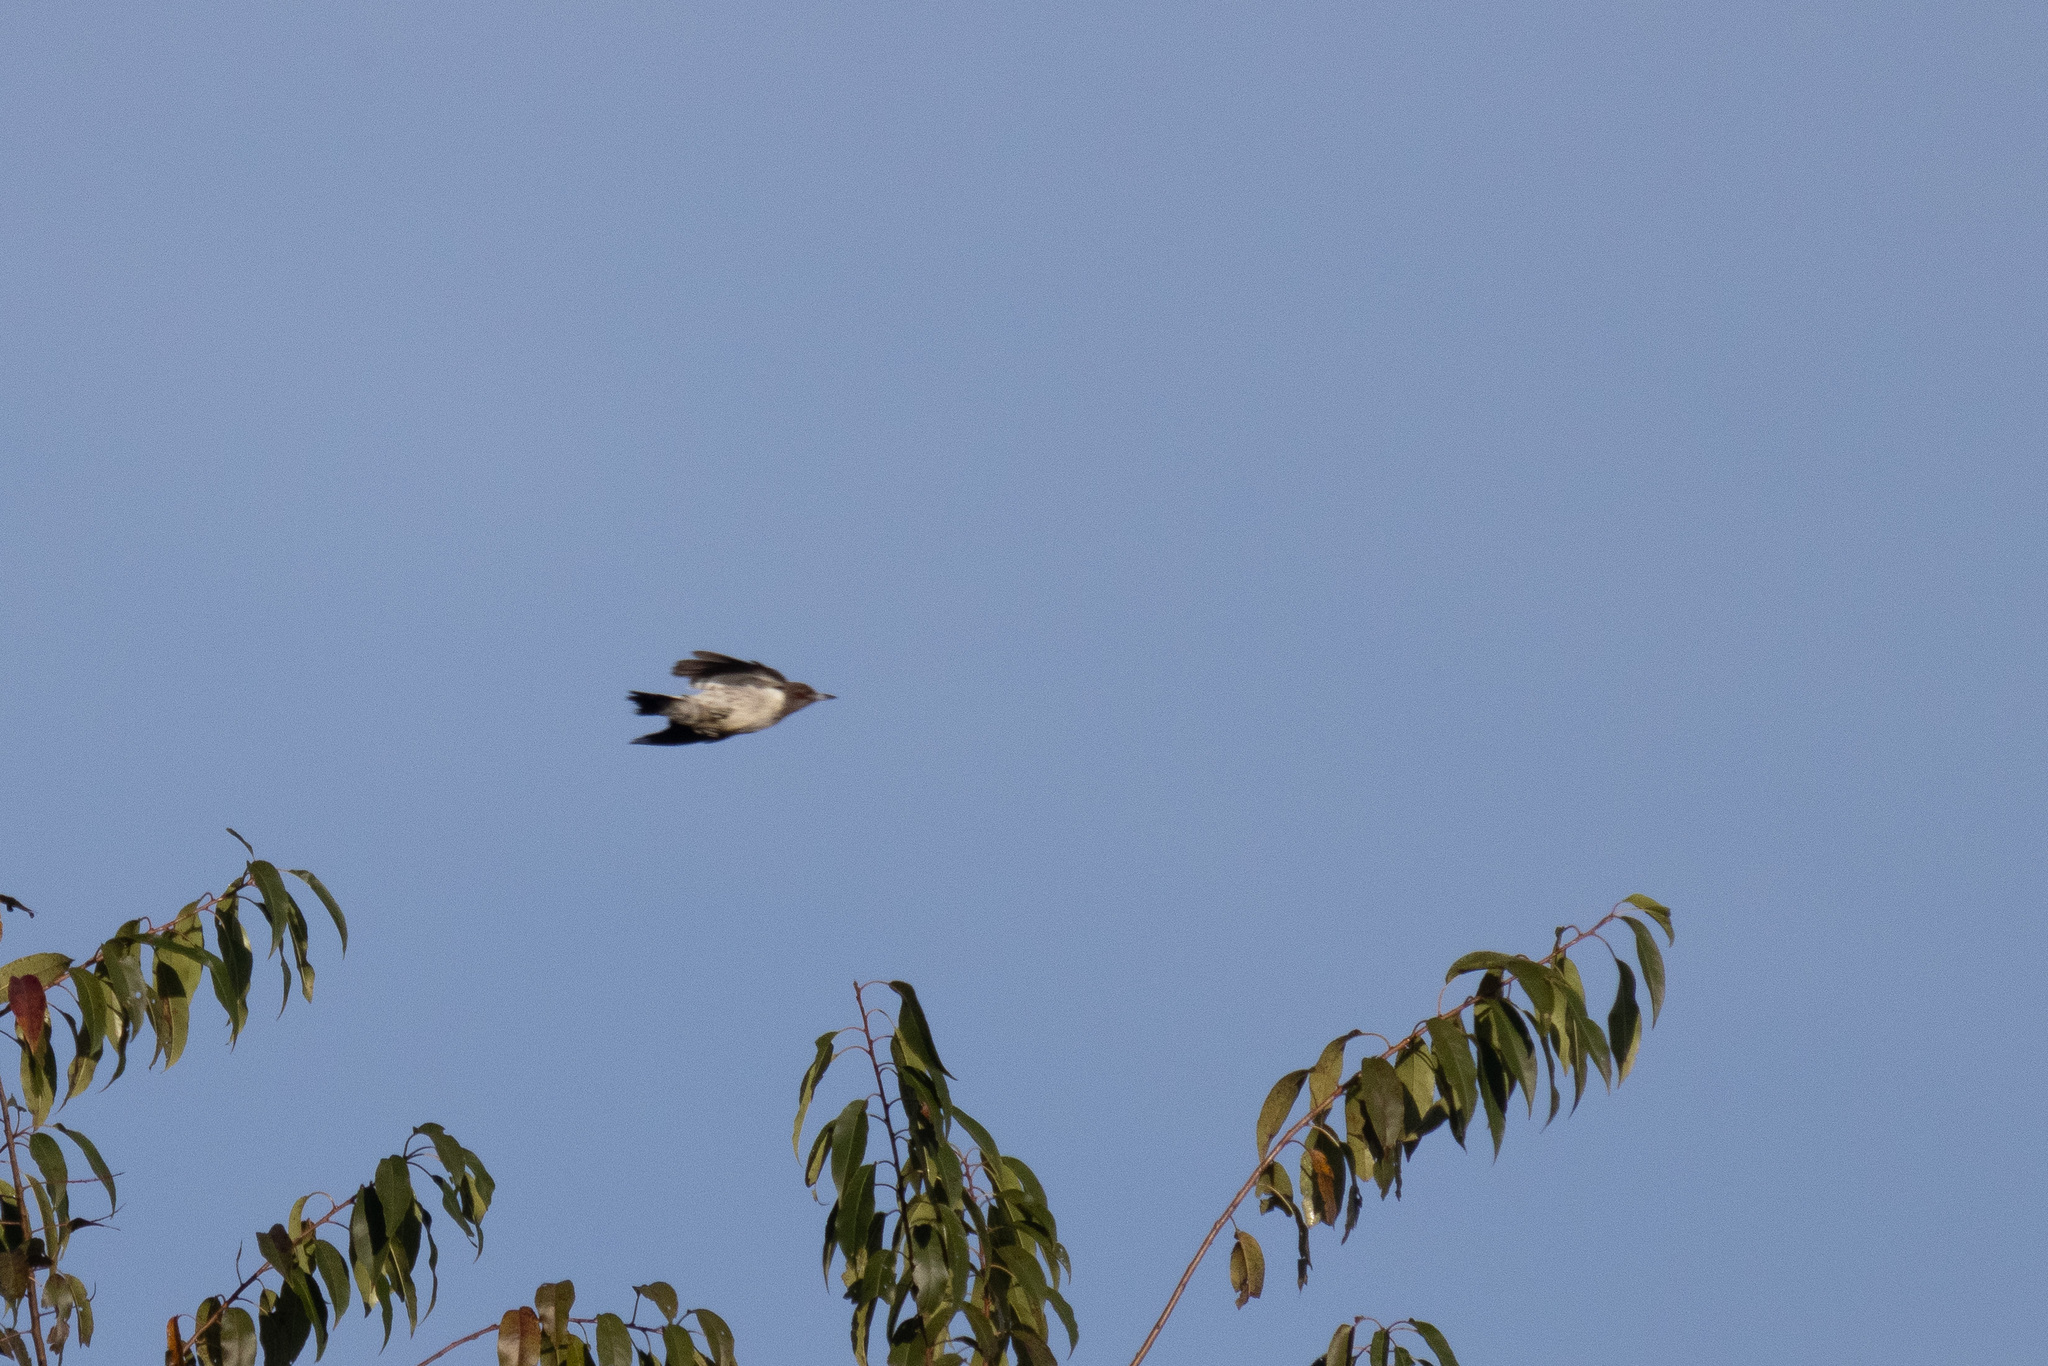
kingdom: Animalia
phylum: Chordata
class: Aves
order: Piciformes
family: Picidae
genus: Melanerpes
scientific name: Melanerpes erythrocephalus
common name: Red-headed woodpecker
